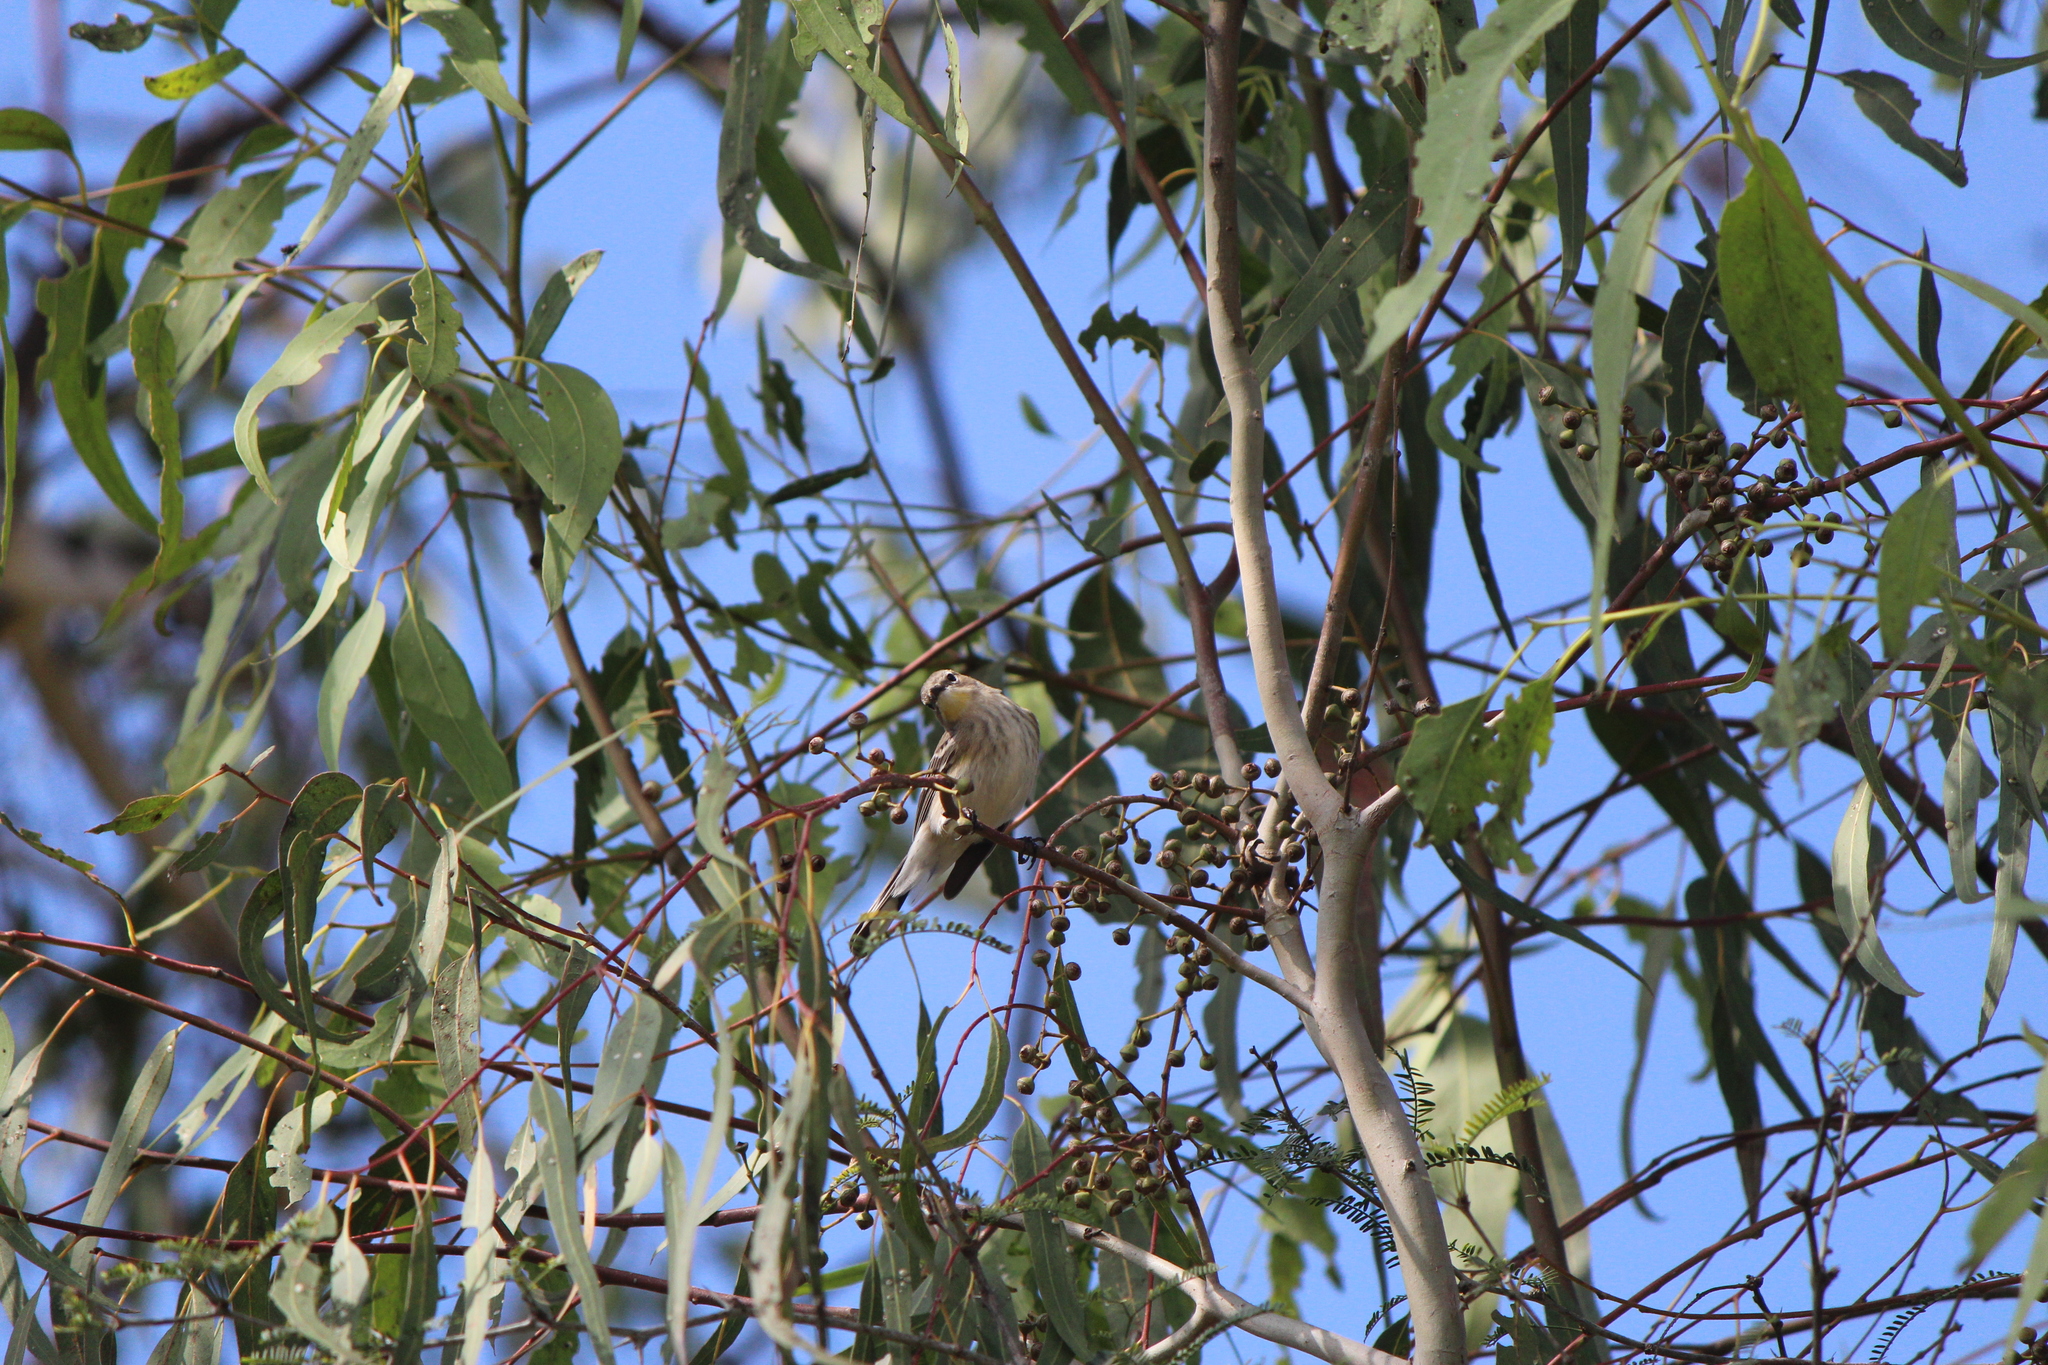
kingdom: Animalia
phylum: Chordata
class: Aves
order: Passeriformes
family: Parulidae
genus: Setophaga
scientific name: Setophaga auduboni
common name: Audubon's warbler
